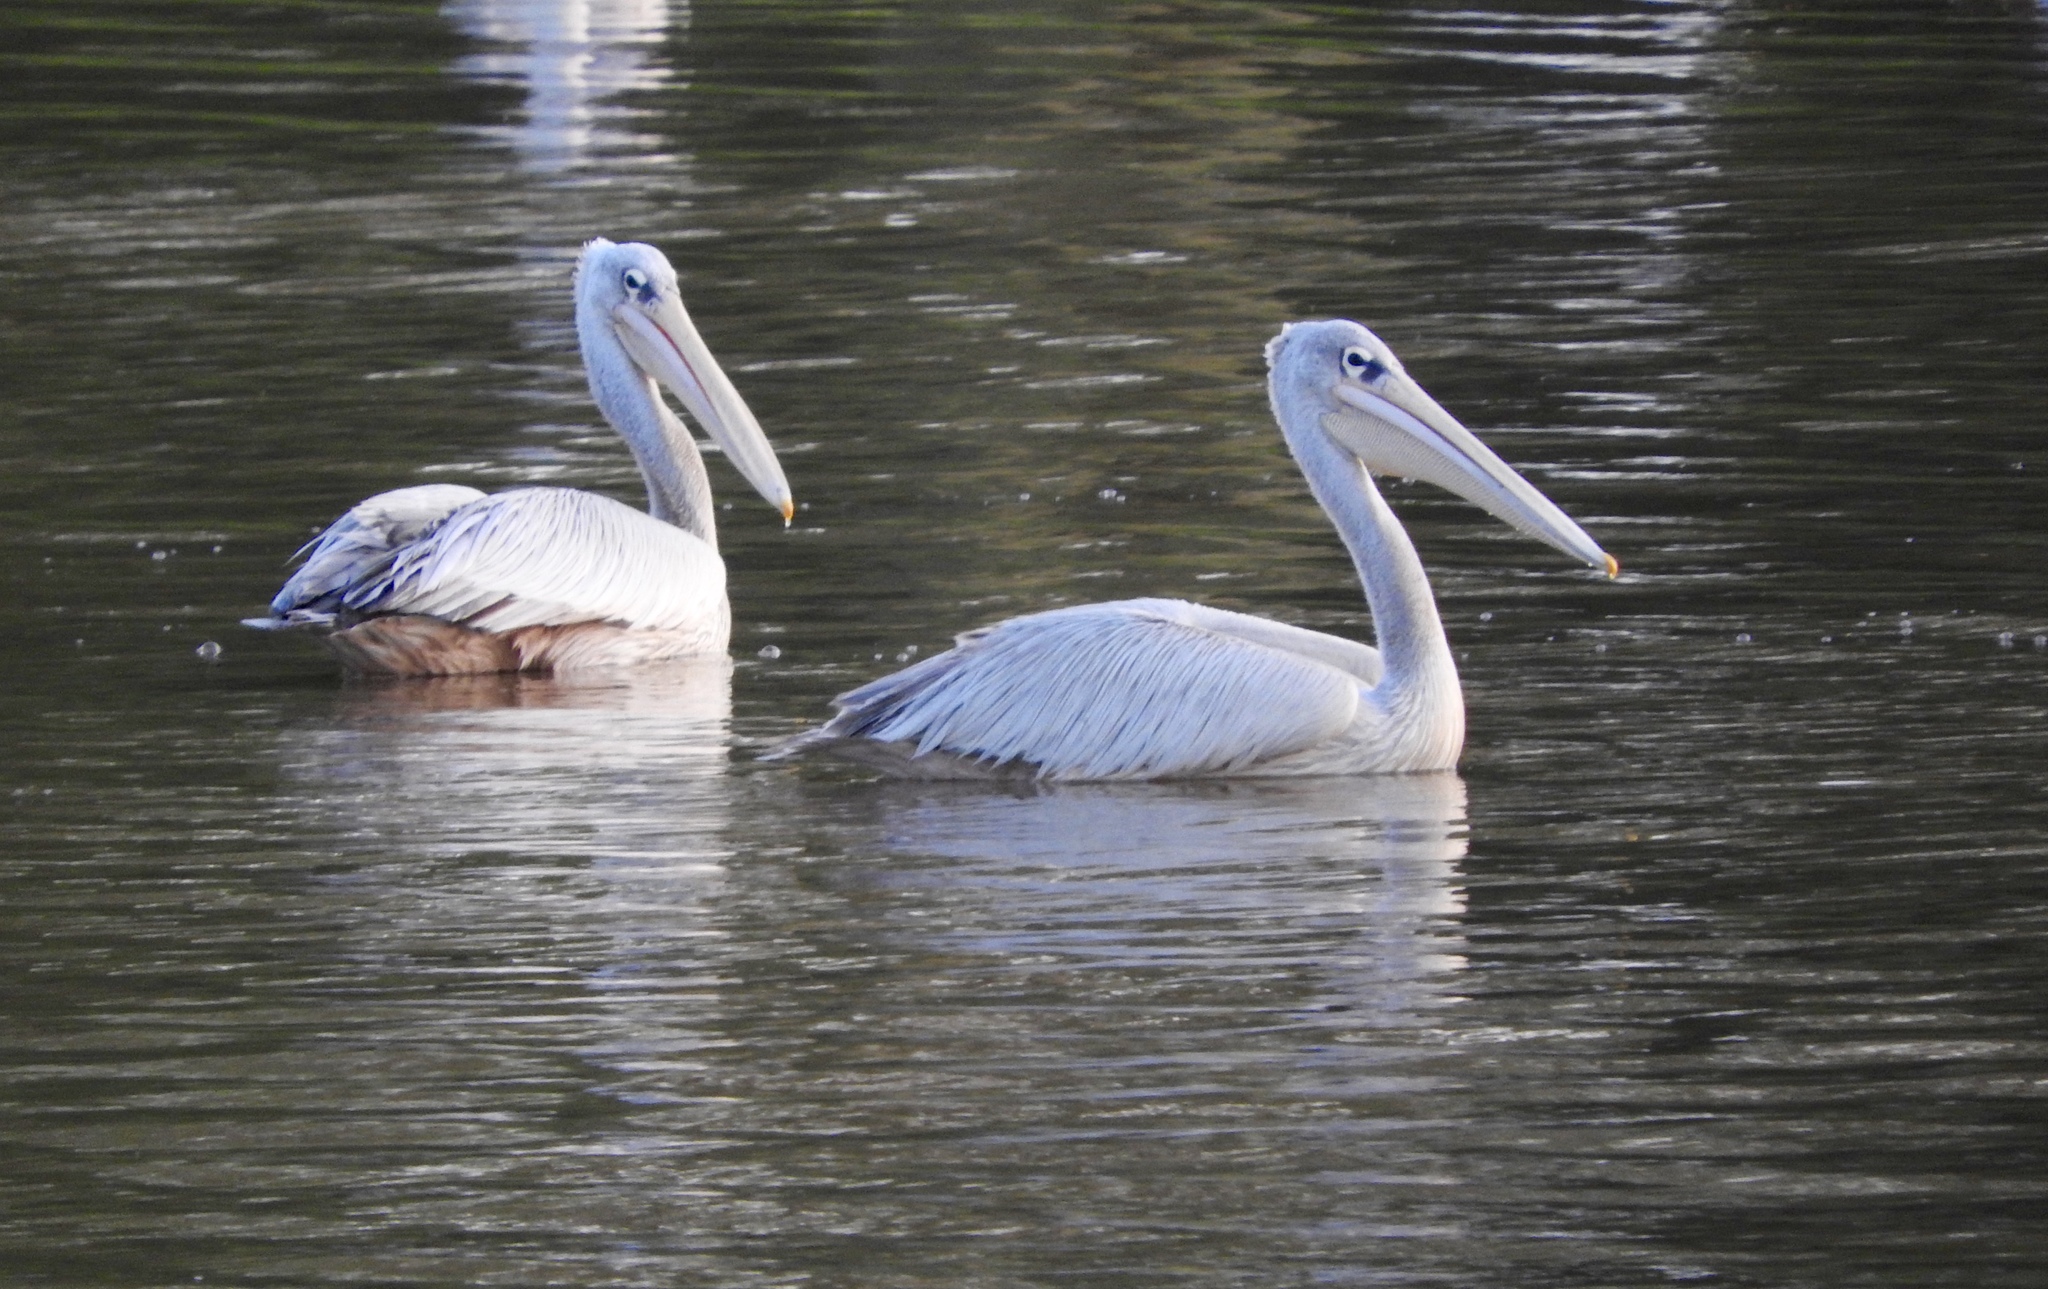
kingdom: Animalia
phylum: Chordata
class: Aves
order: Pelecaniformes
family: Pelecanidae
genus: Pelecanus
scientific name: Pelecanus rufescens
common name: Pink-backed pelican
